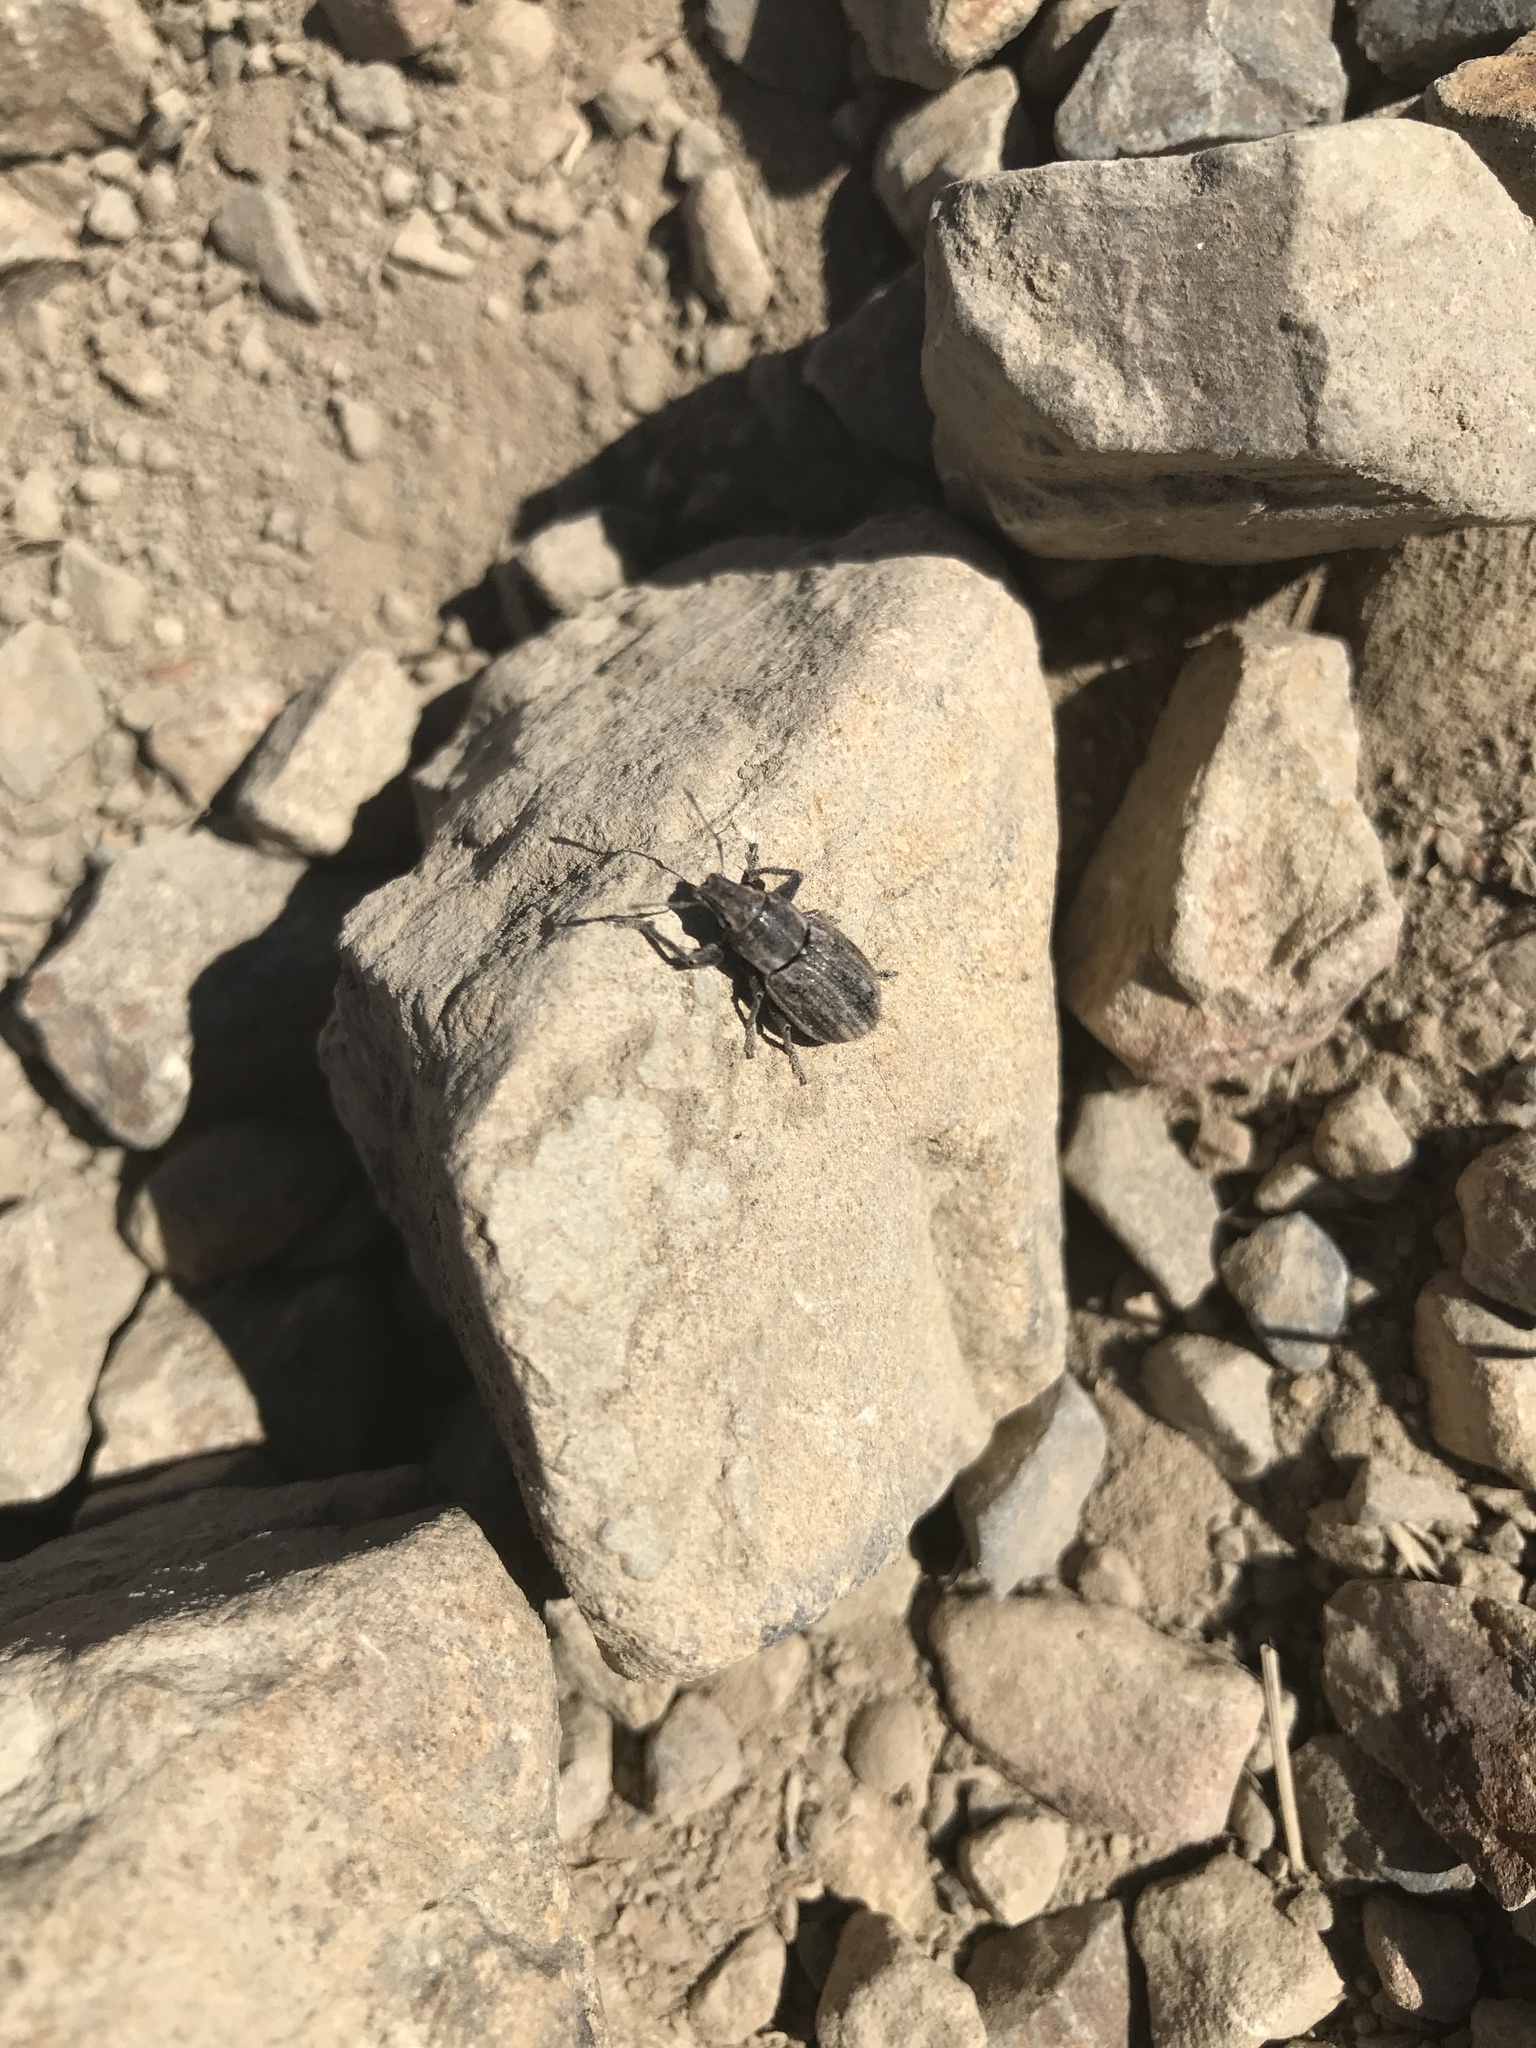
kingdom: Animalia
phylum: Arthropoda
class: Insecta
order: Coleoptera
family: Curculionidae
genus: Naupactus
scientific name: Naupactus leucoloma
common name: Whitefringed beetle
